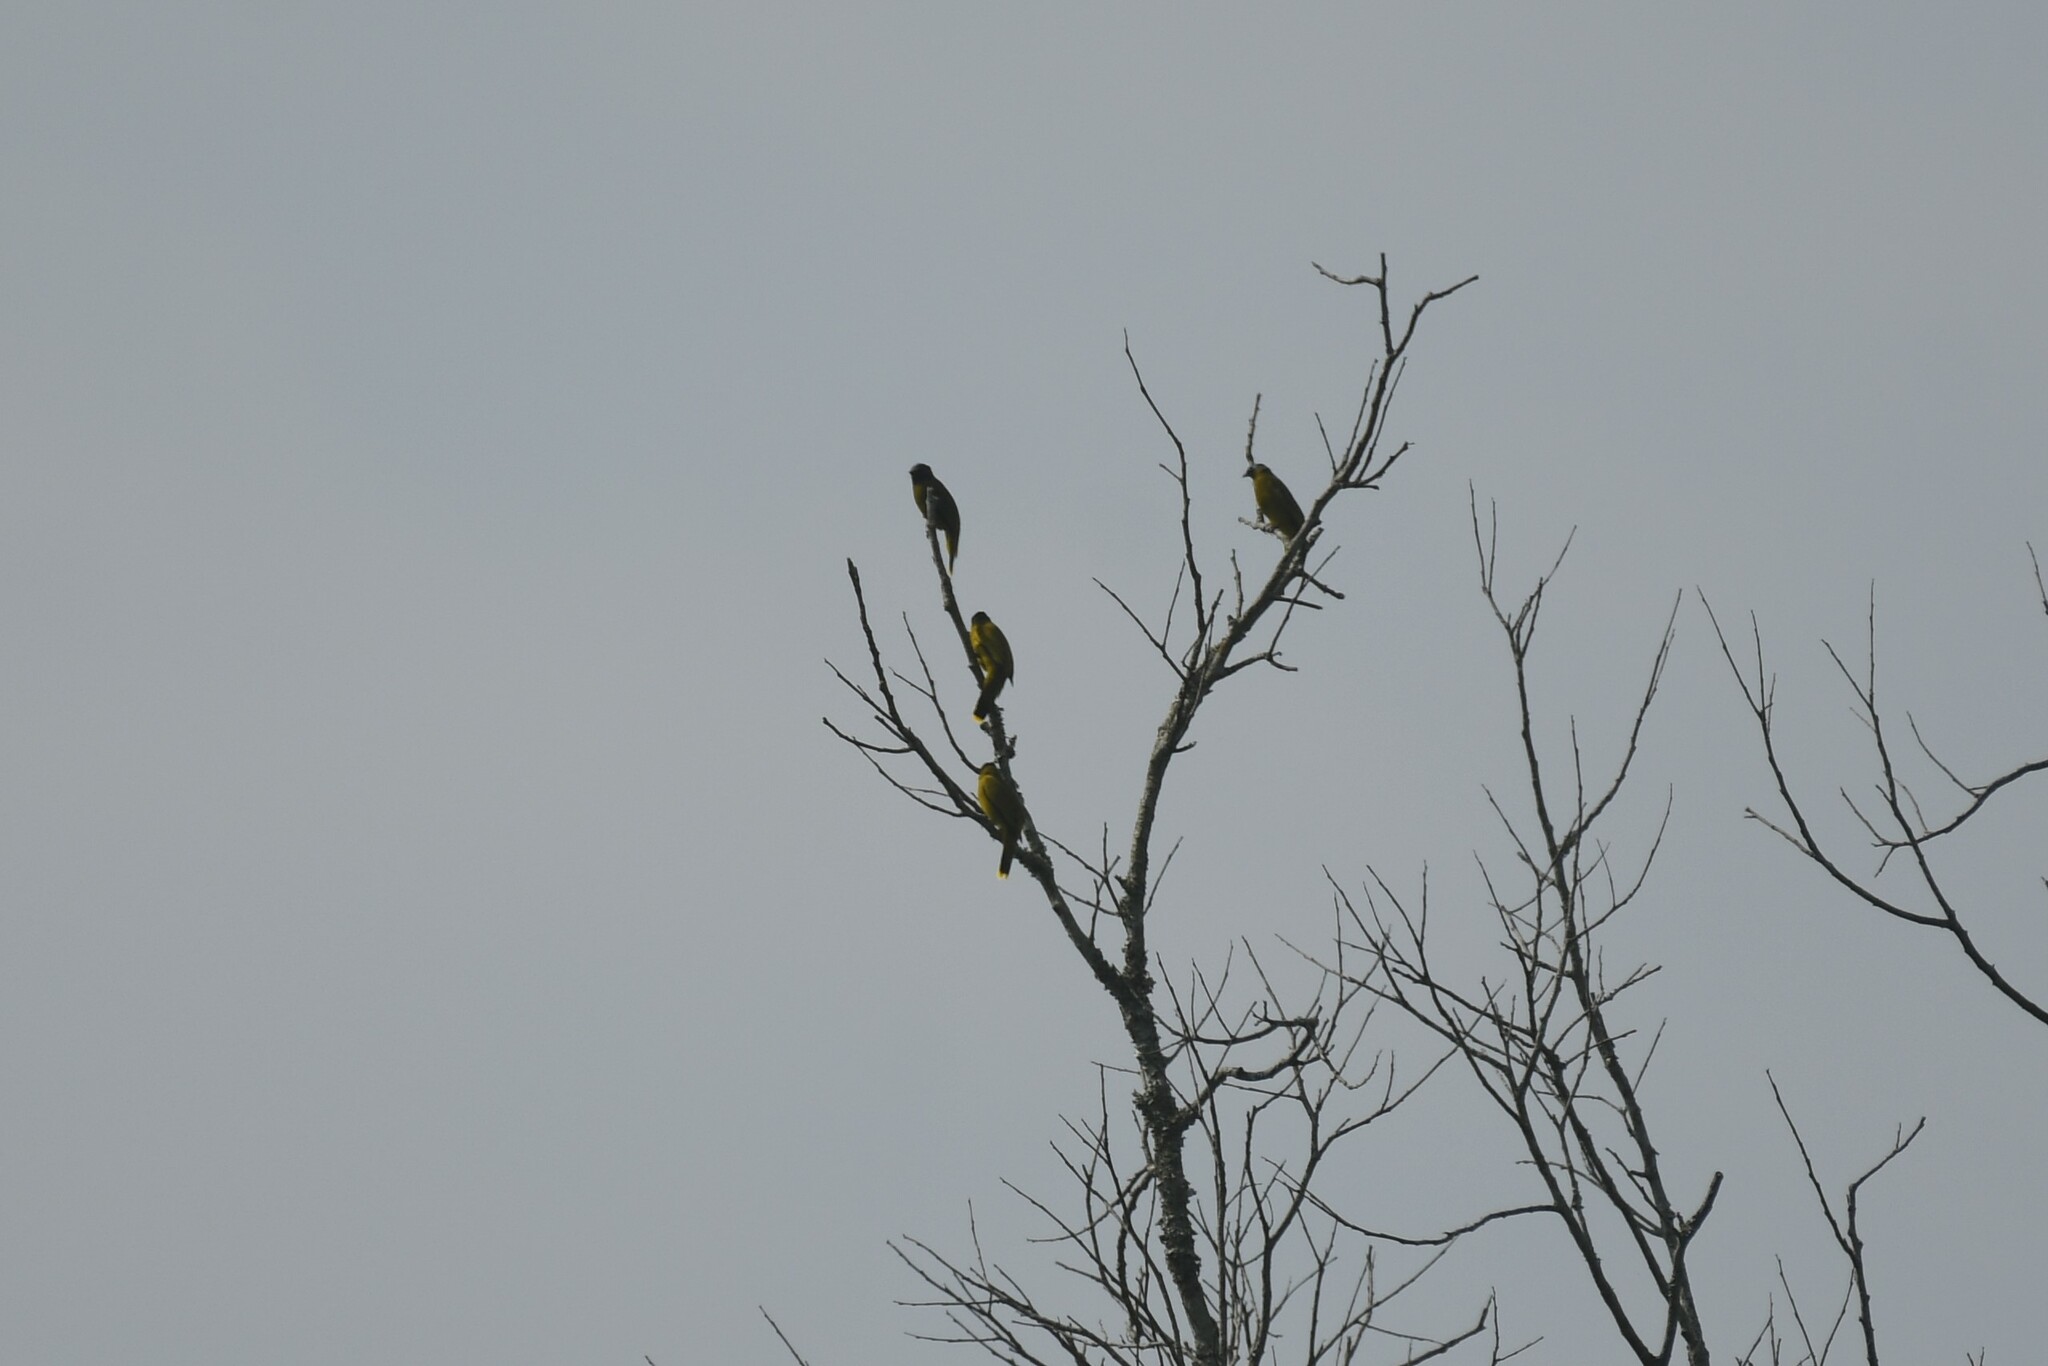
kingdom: Animalia
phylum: Chordata
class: Aves
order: Passeriformes
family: Pycnonotidae
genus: Microtarsus
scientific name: Microtarsus
